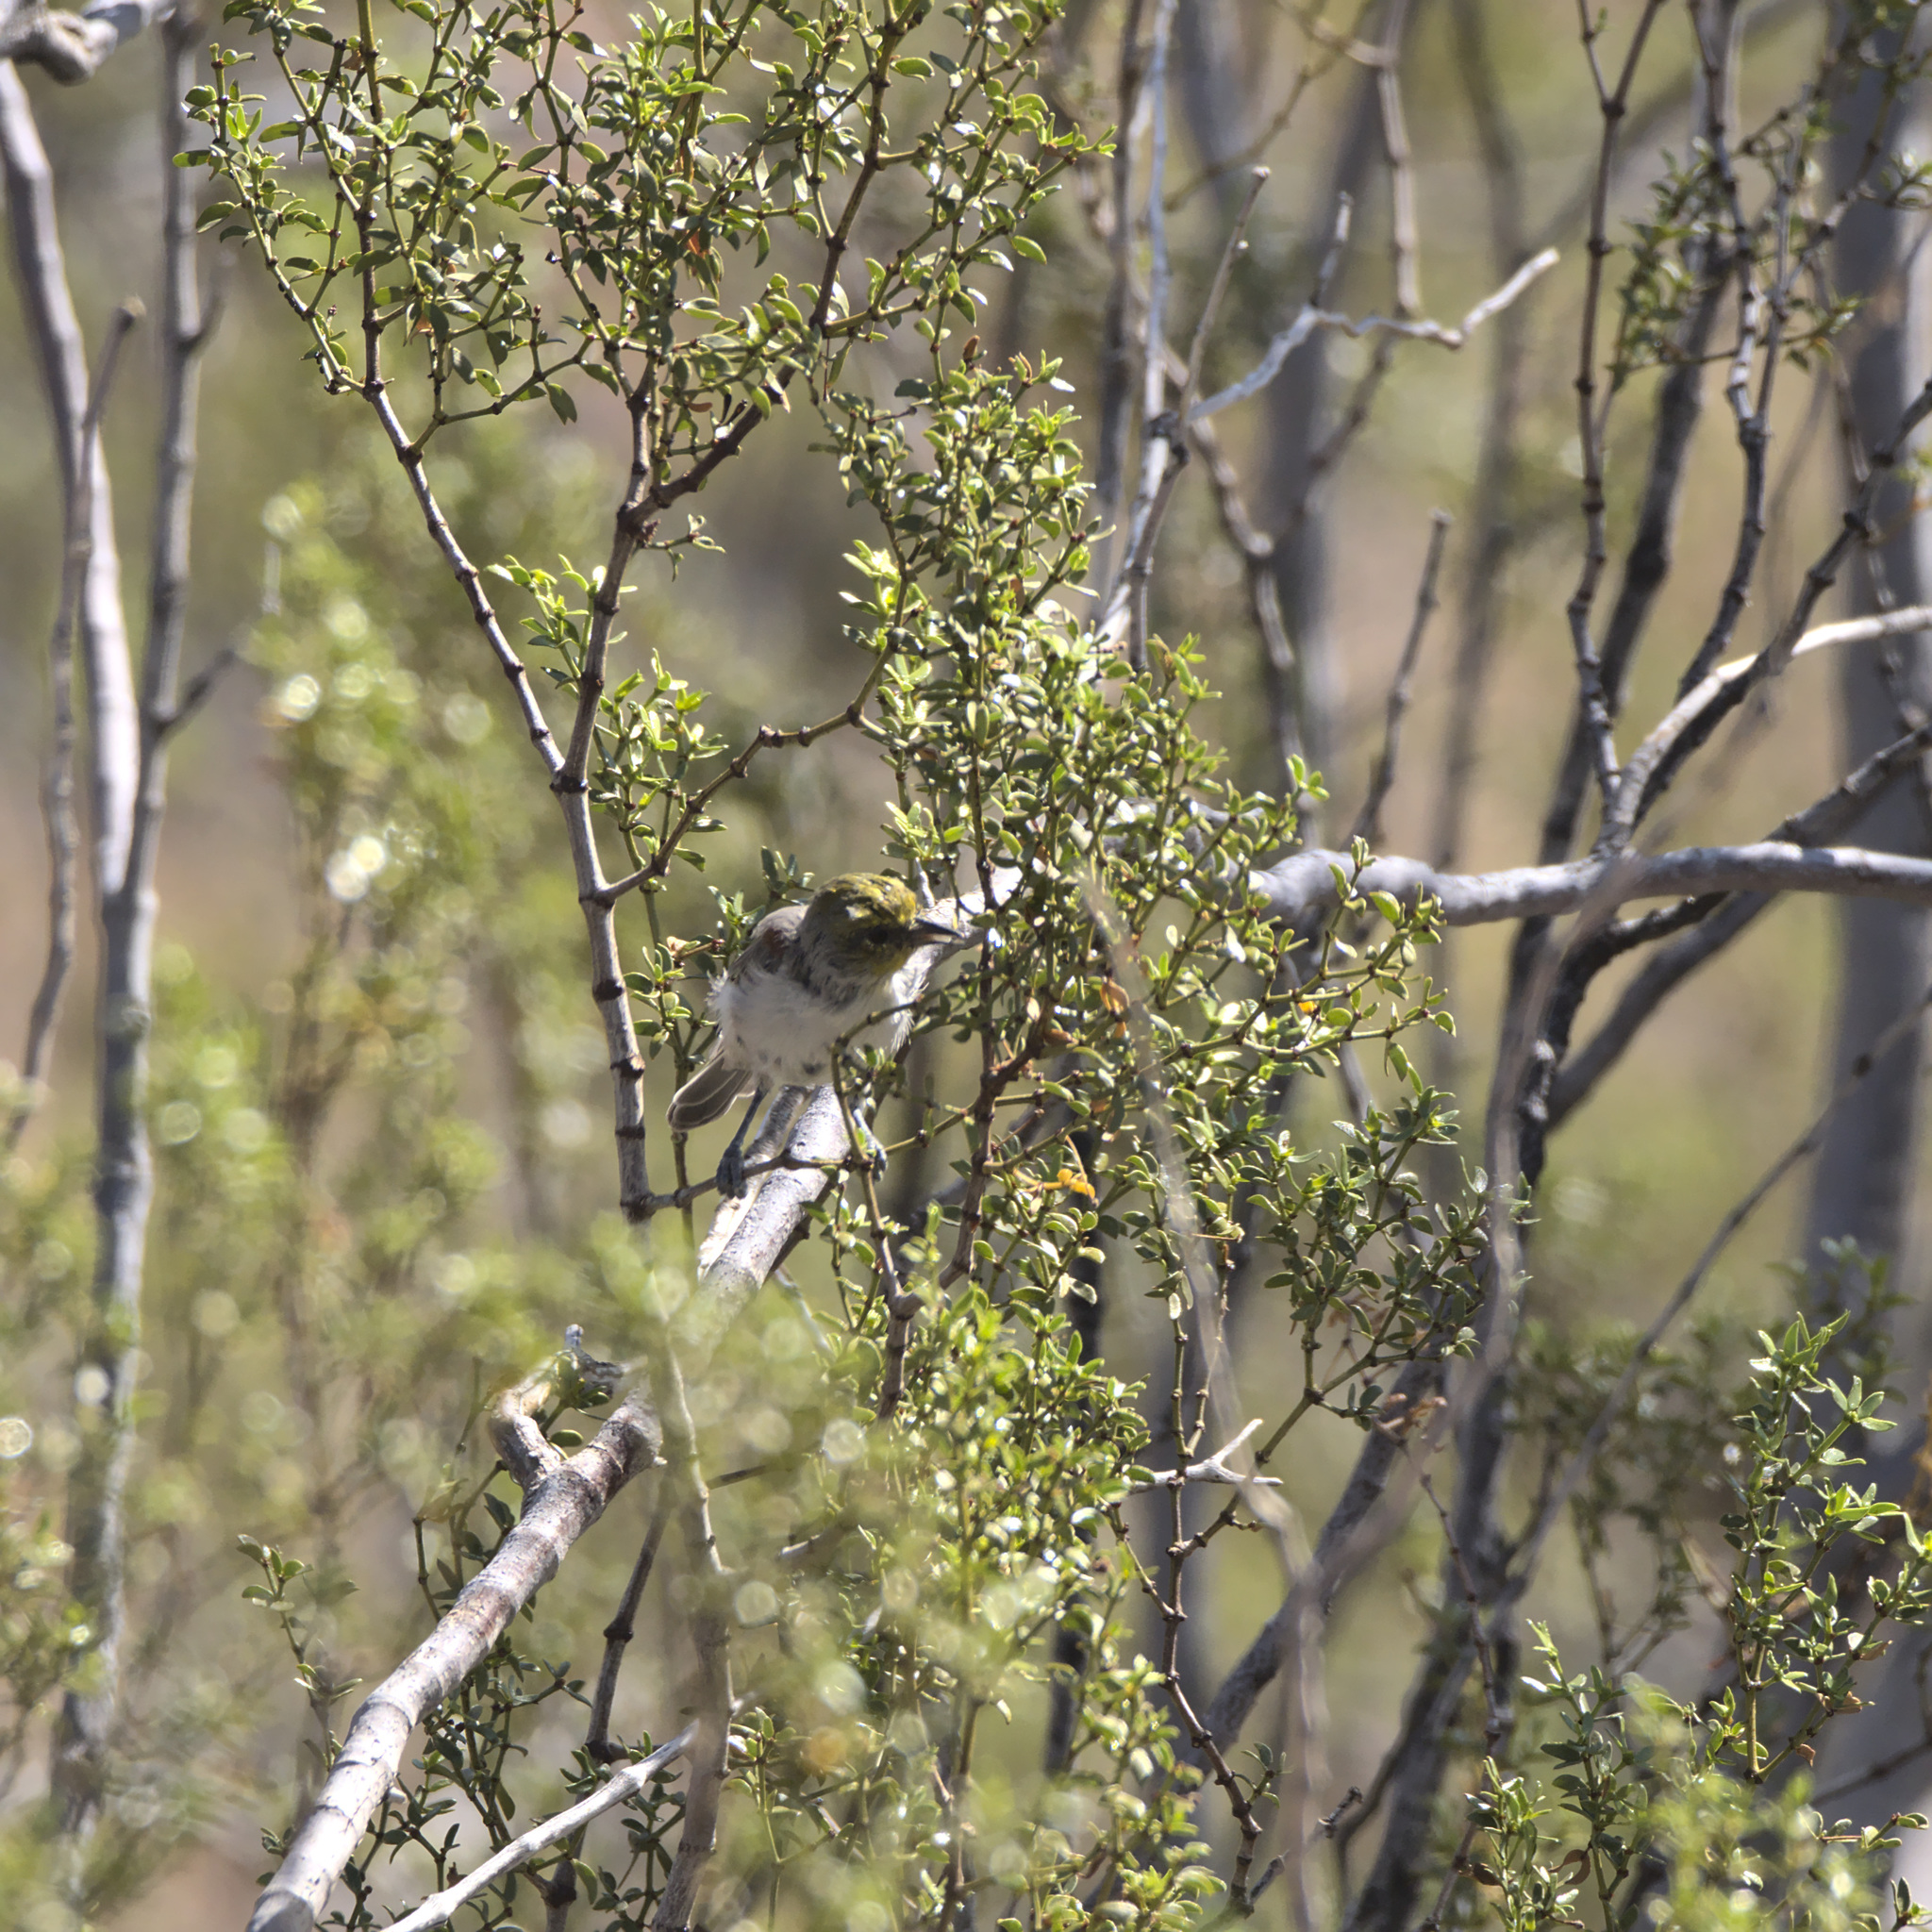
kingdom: Animalia
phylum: Chordata
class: Aves
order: Passeriformes
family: Remizidae
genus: Auriparus
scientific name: Auriparus flaviceps
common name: Verdin
